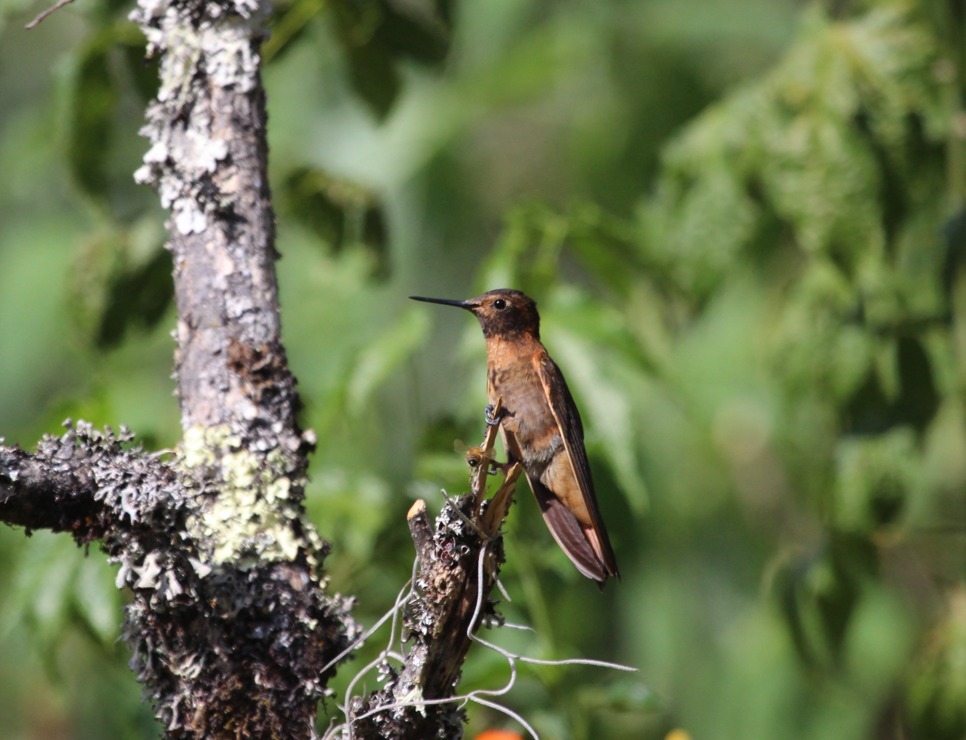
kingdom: Animalia
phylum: Chordata
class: Aves
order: Apodiformes
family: Trochilidae
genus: Aglaeactis
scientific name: Aglaeactis cupripennis
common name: Shining sunbeam
